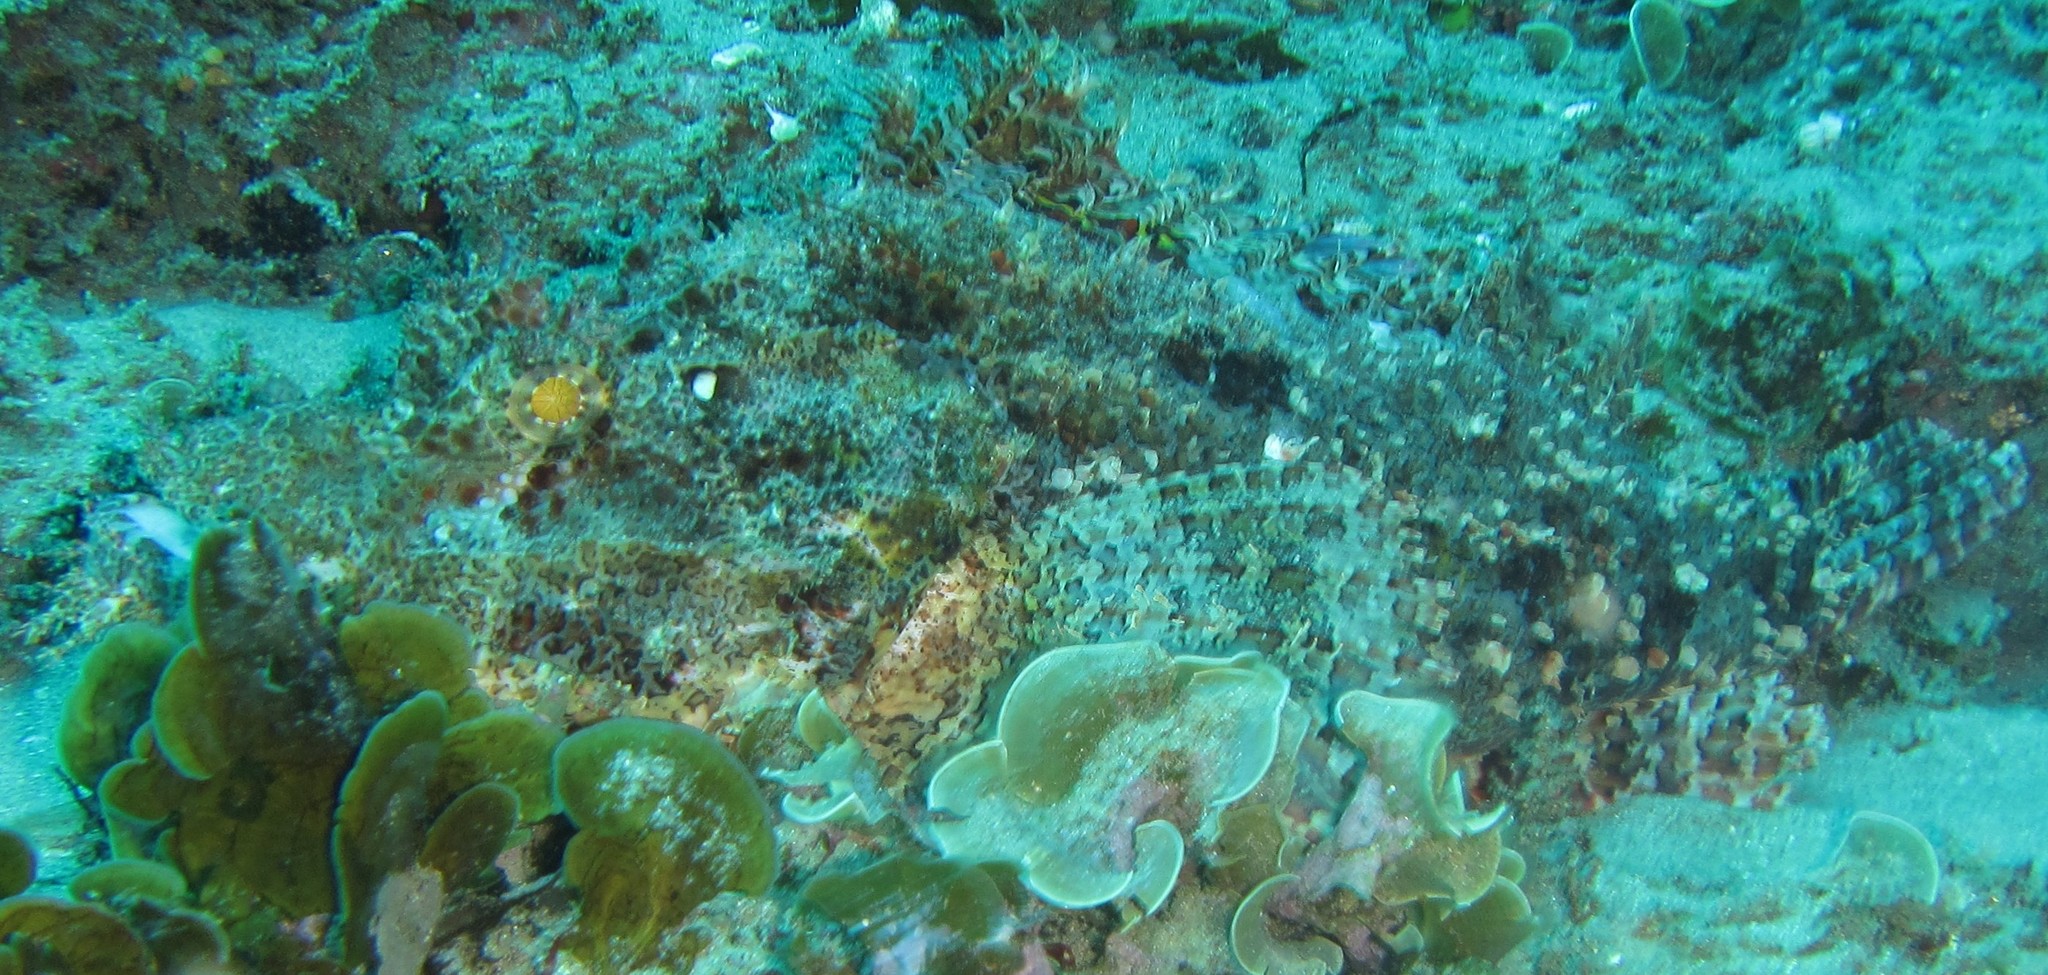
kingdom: Animalia
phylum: Chordata
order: Scorpaeniformes
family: Scorpaenidae
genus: Scorpaenopsis
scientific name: Scorpaenopsis oxycephala
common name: Smallscale scorpionfish
